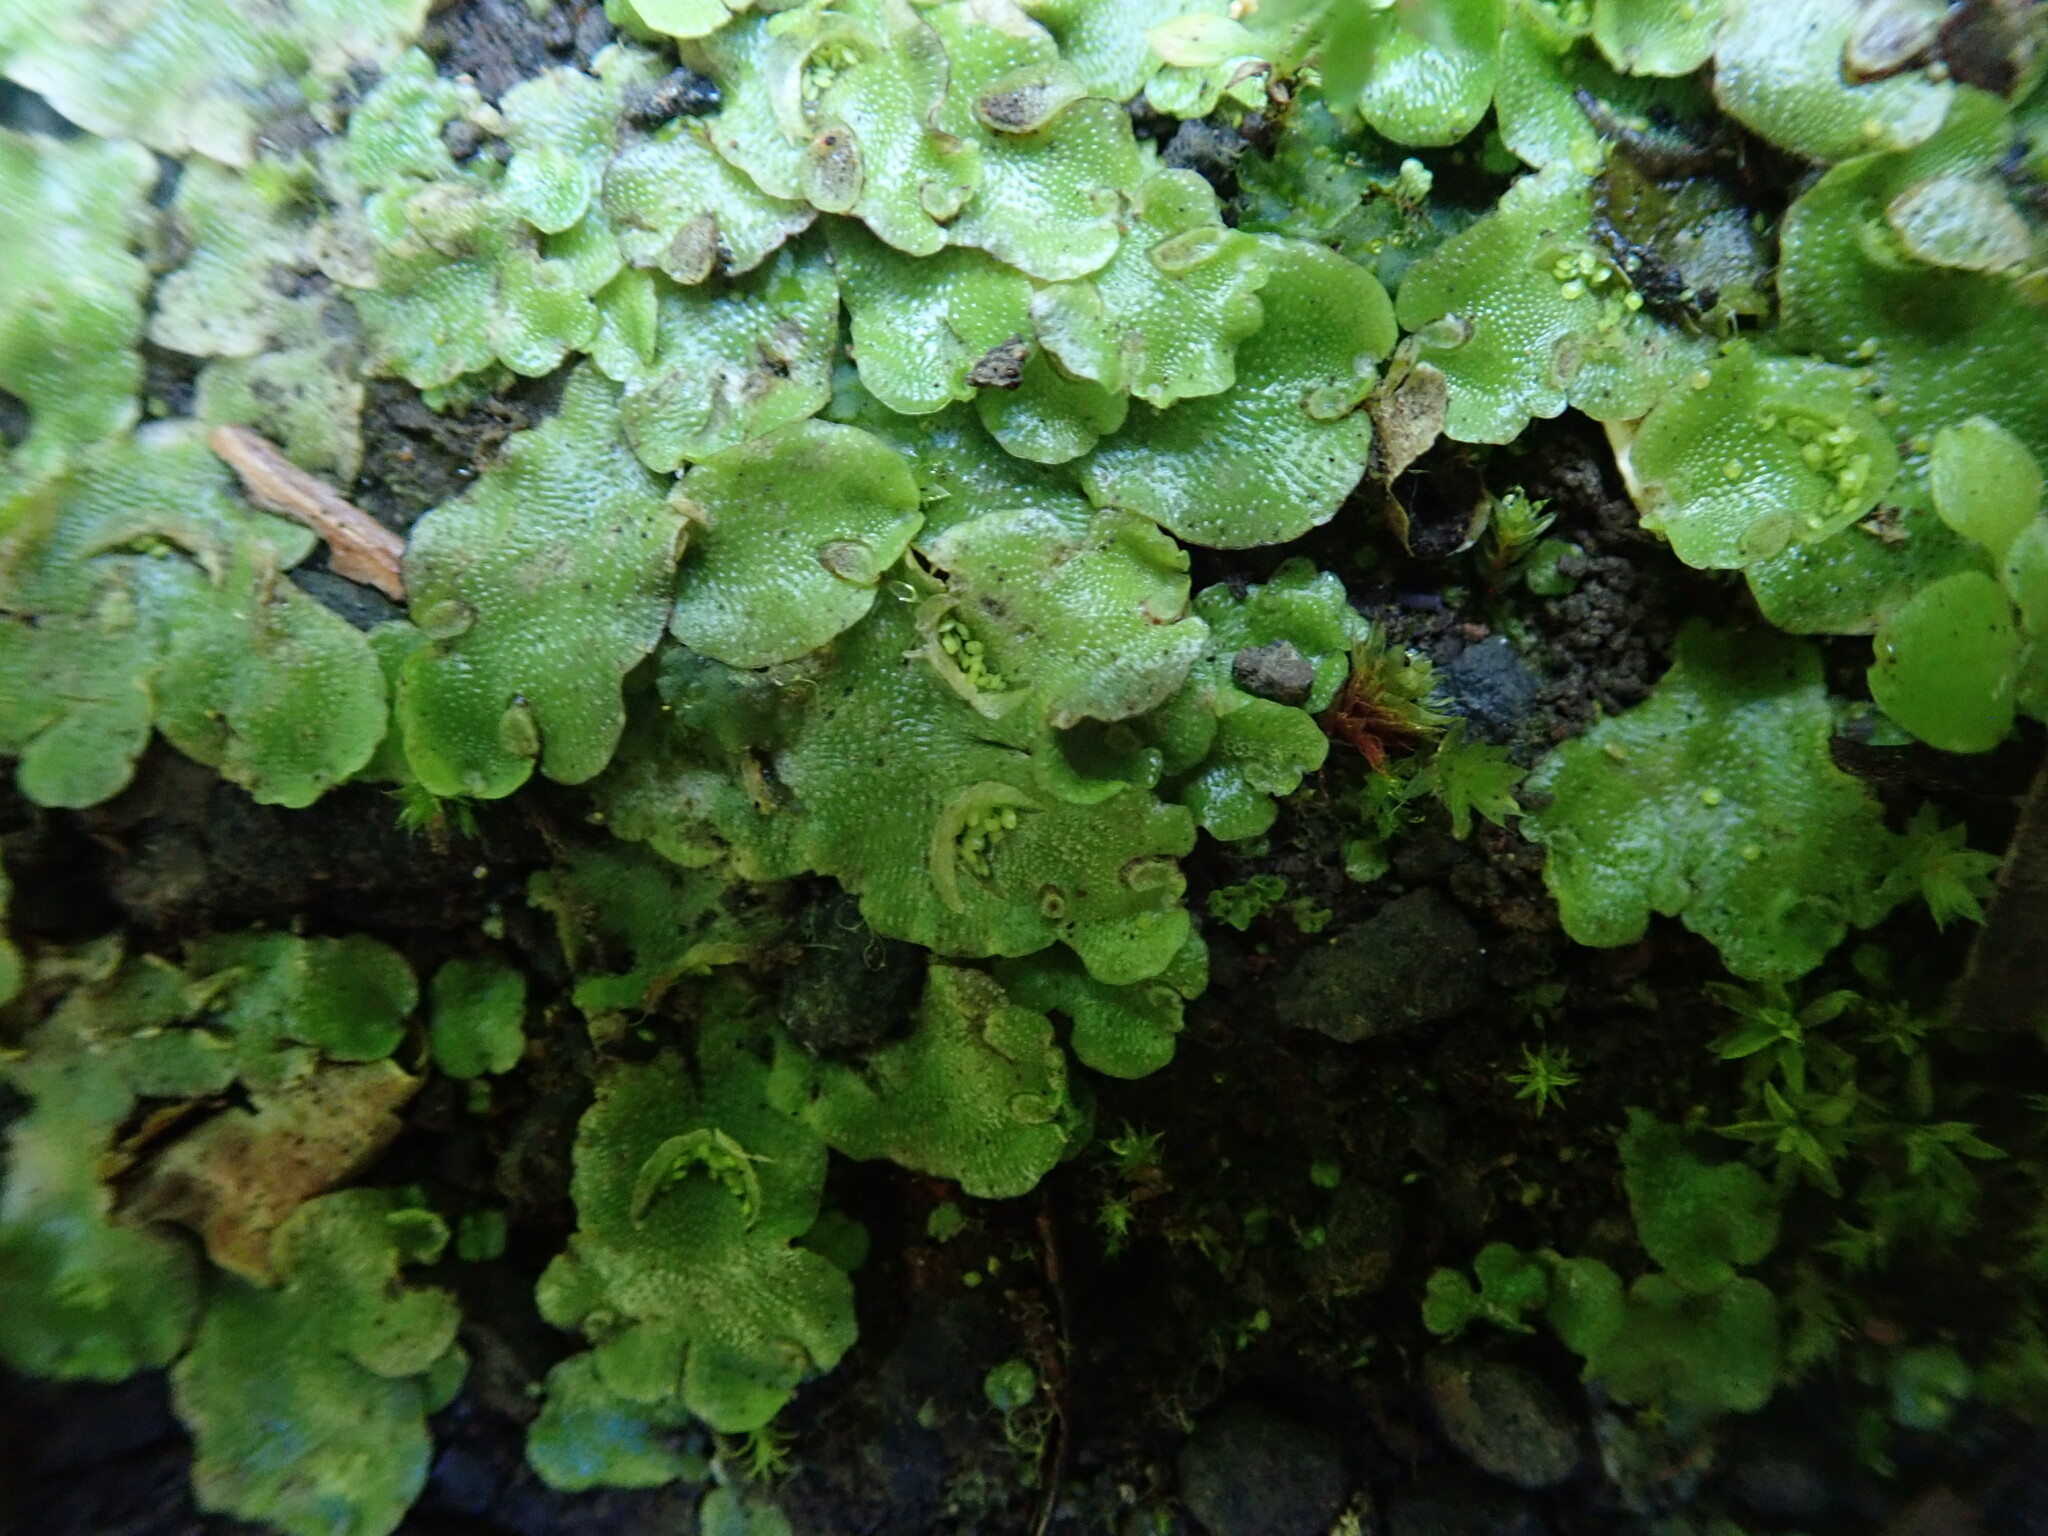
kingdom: Plantae
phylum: Marchantiophyta
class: Marchantiopsida
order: Lunulariales
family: Lunulariaceae
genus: Lunularia
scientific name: Lunularia cruciata
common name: Crescent-cup liverwort
